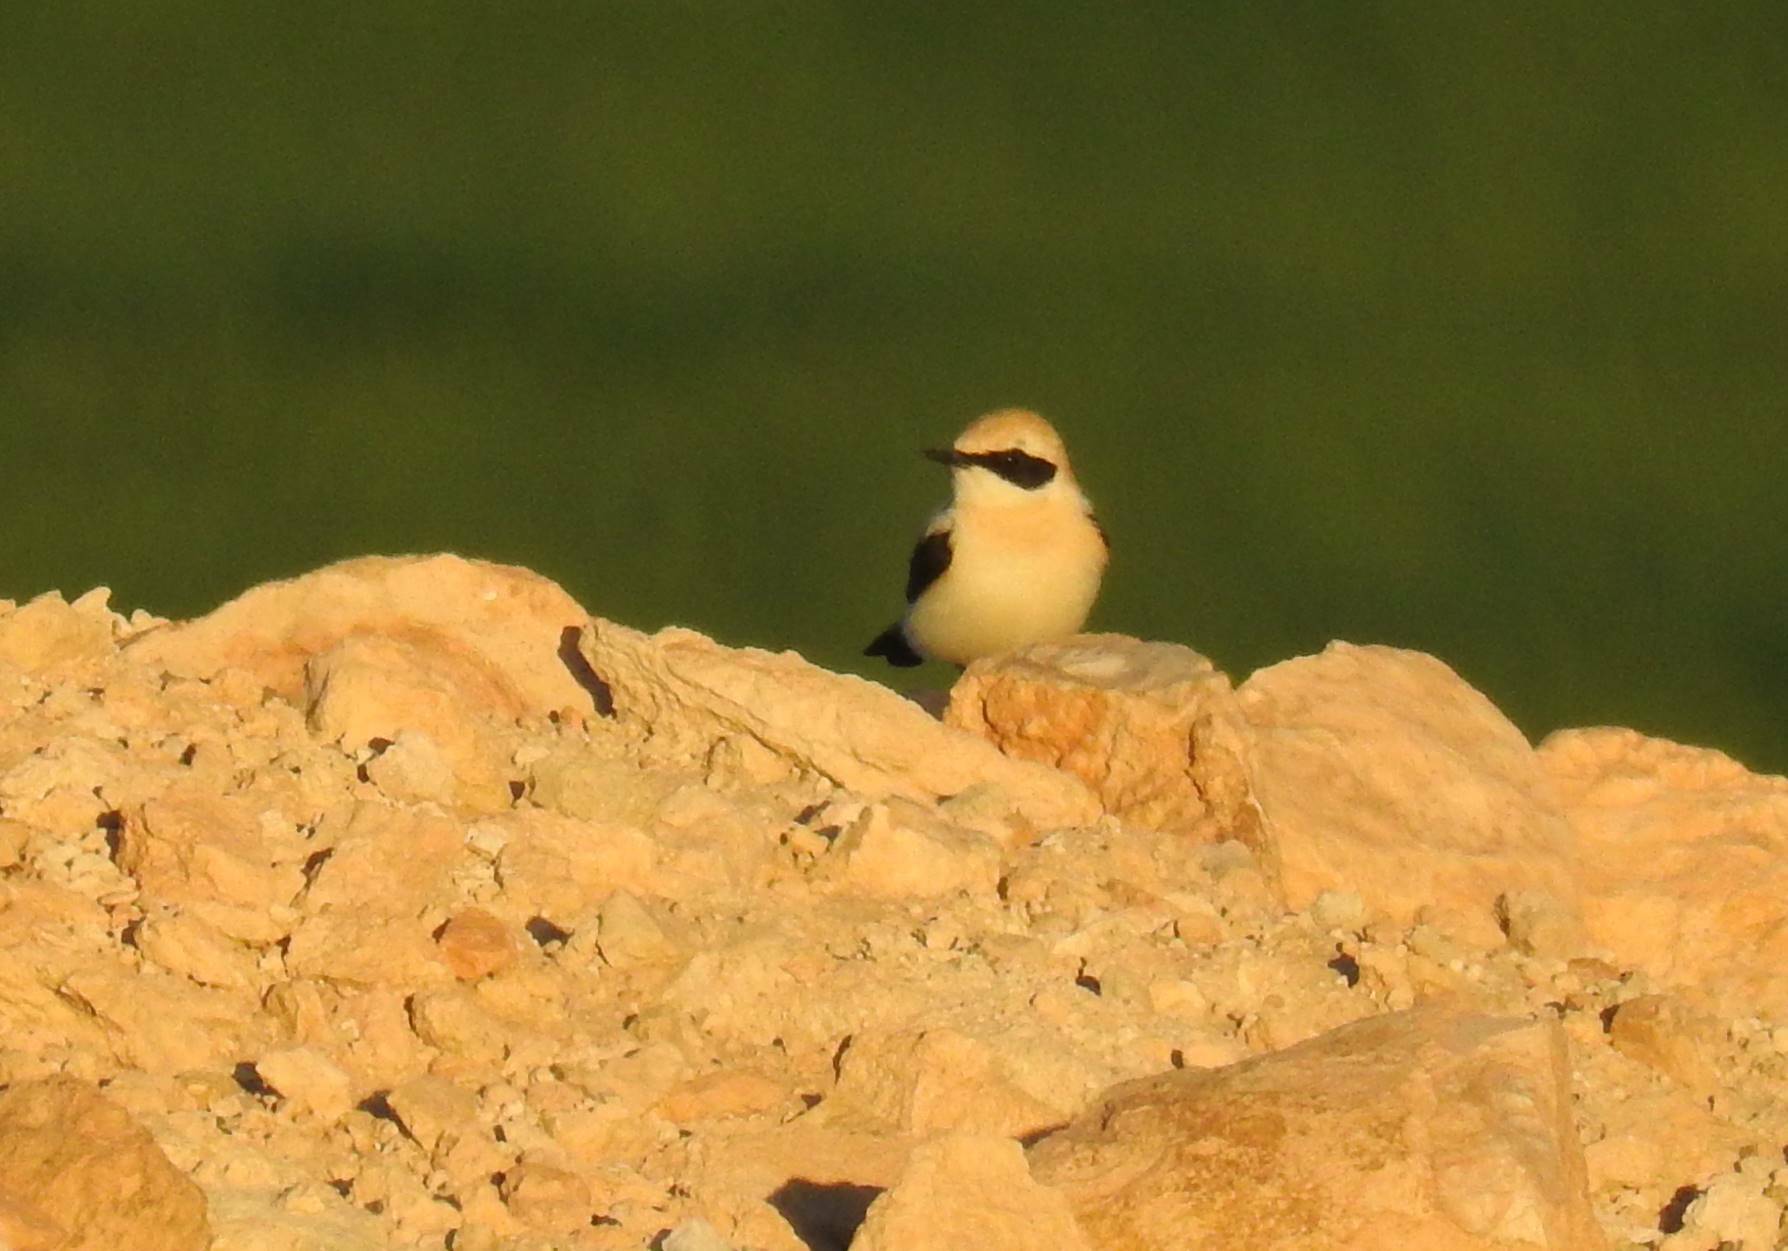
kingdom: Animalia
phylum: Chordata
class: Aves
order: Passeriformes
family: Muscicapidae
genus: Oenanthe
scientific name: Oenanthe hispanica
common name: Black-eared wheatear
